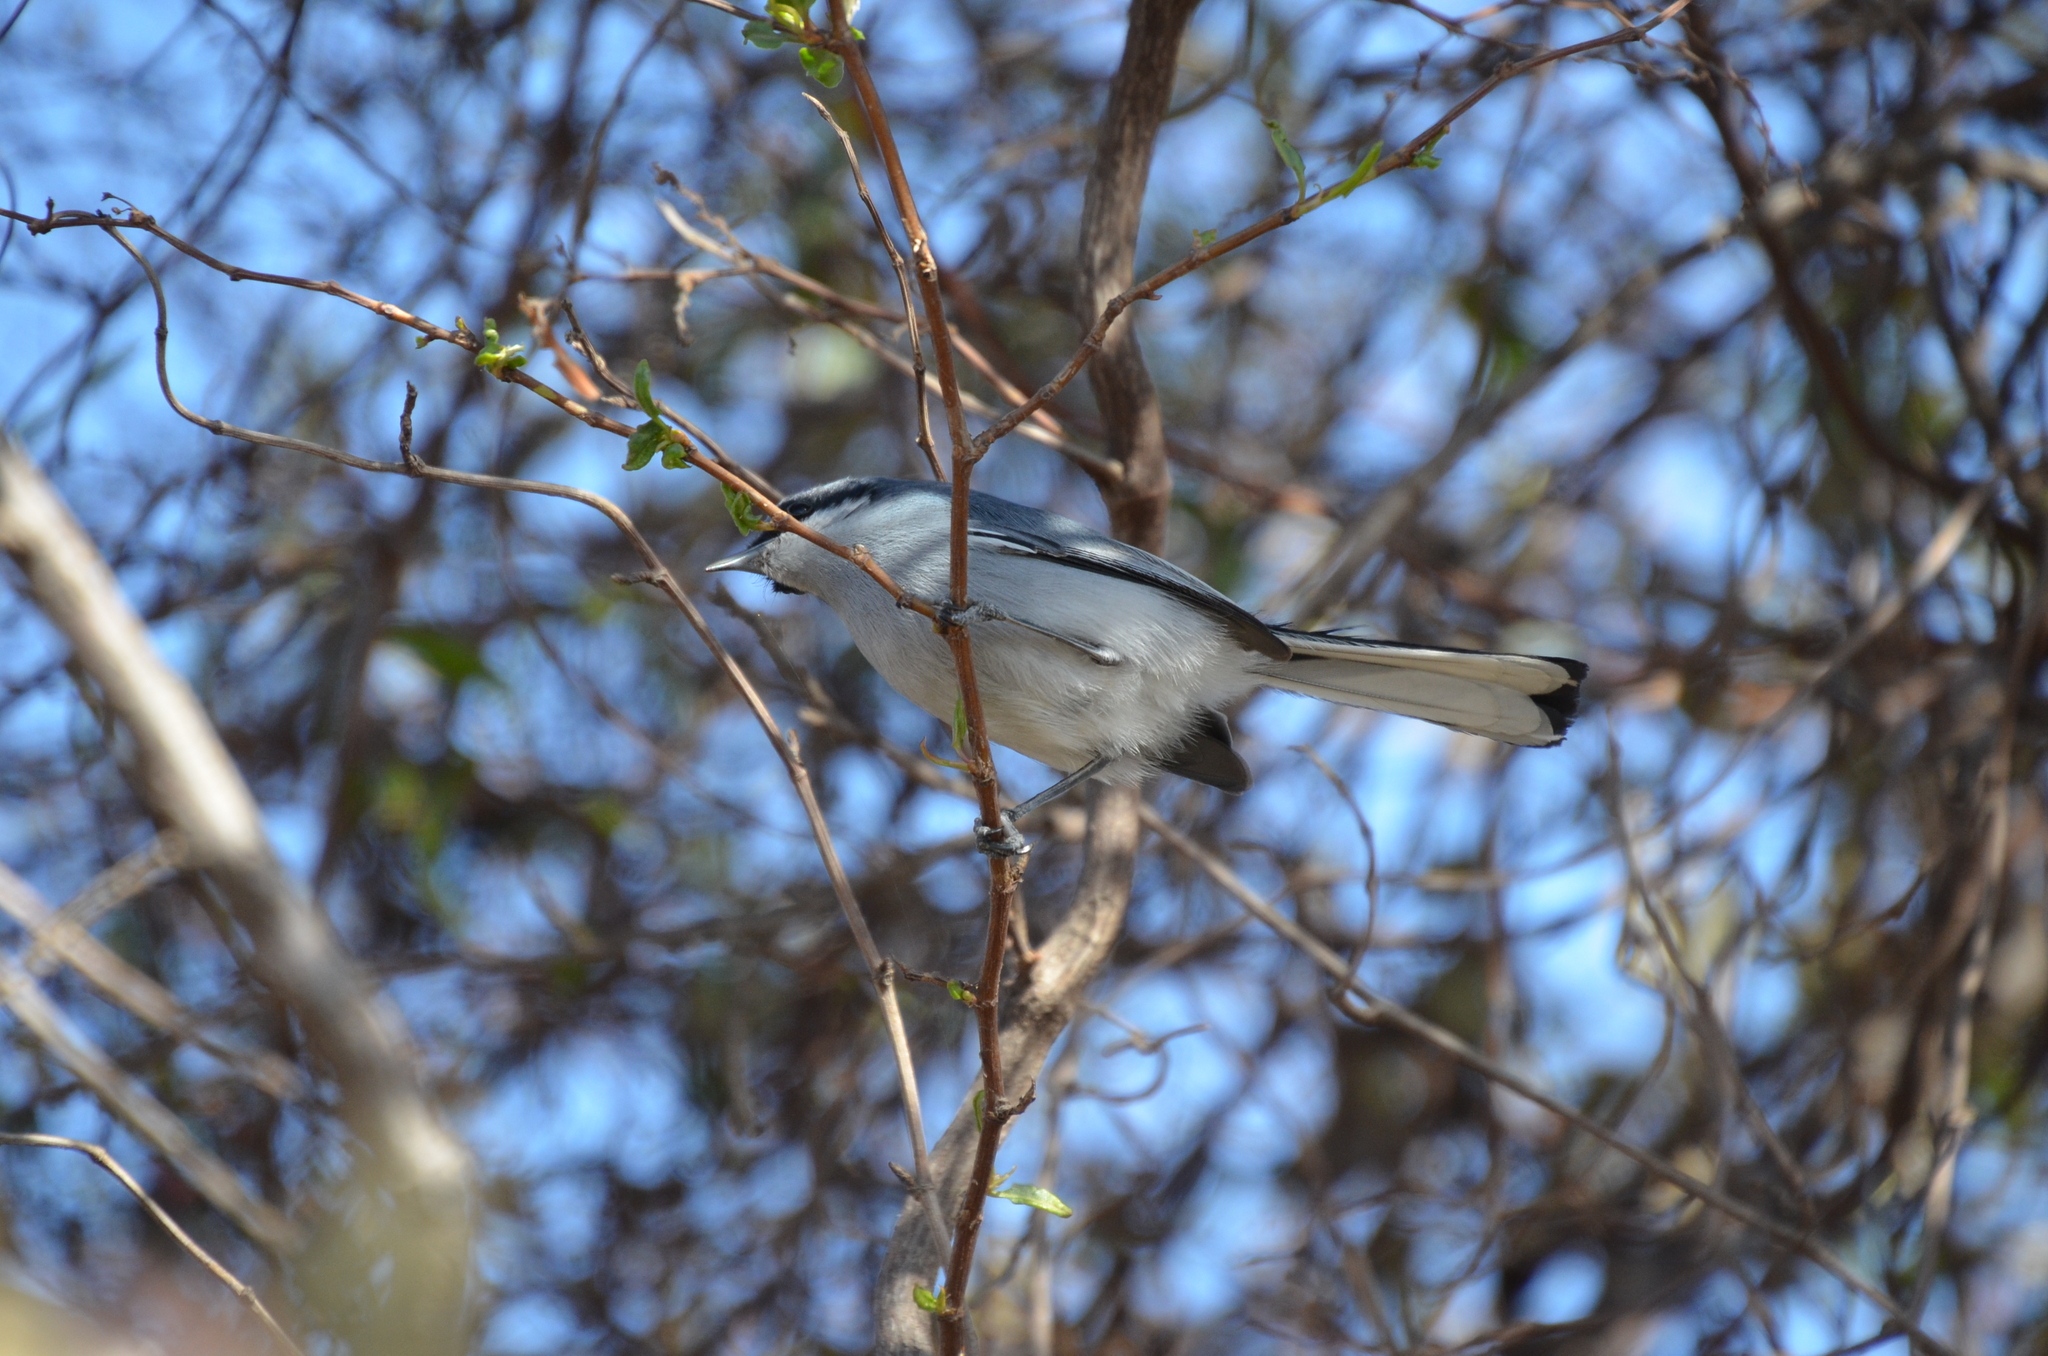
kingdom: Animalia
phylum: Chordata
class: Aves
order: Passeriformes
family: Polioptilidae
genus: Polioptila
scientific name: Polioptila dumicola
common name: Masked gnatcatcher
